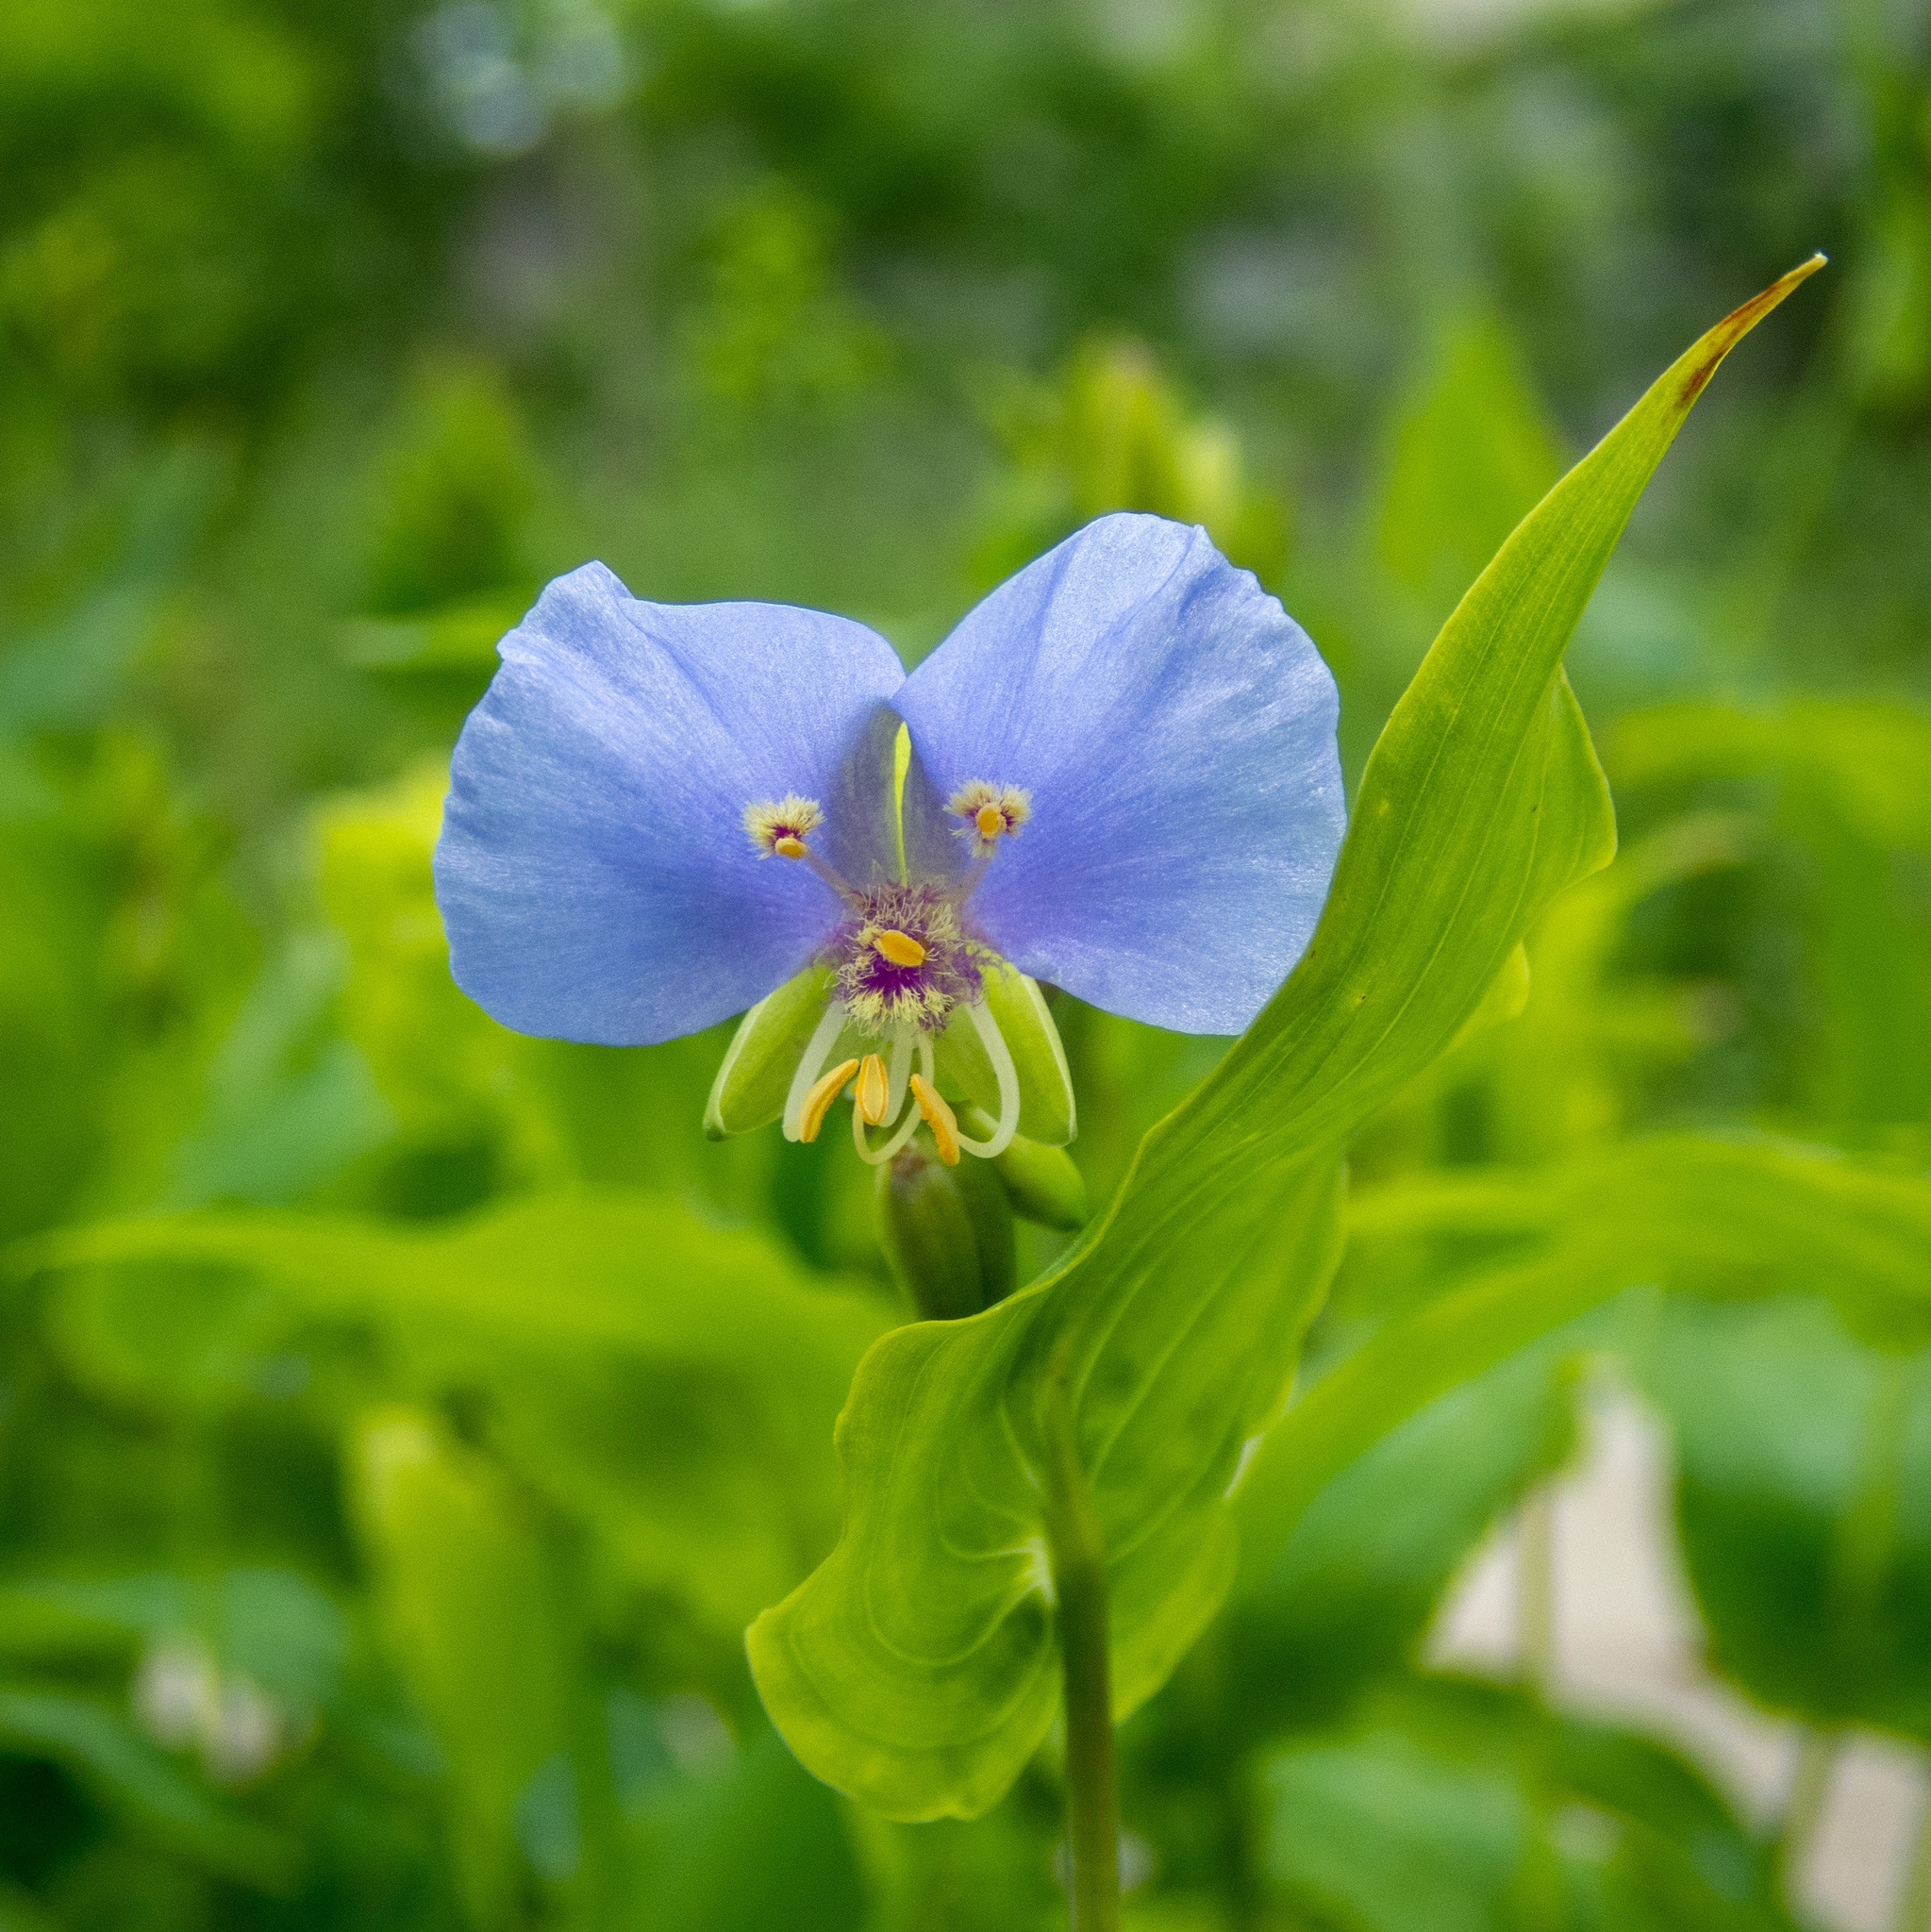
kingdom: Plantae
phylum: Tracheophyta
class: Liliopsida
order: Commelinales
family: Commelinaceae
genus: Tinantia
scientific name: Tinantia anomala
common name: False dayflower
